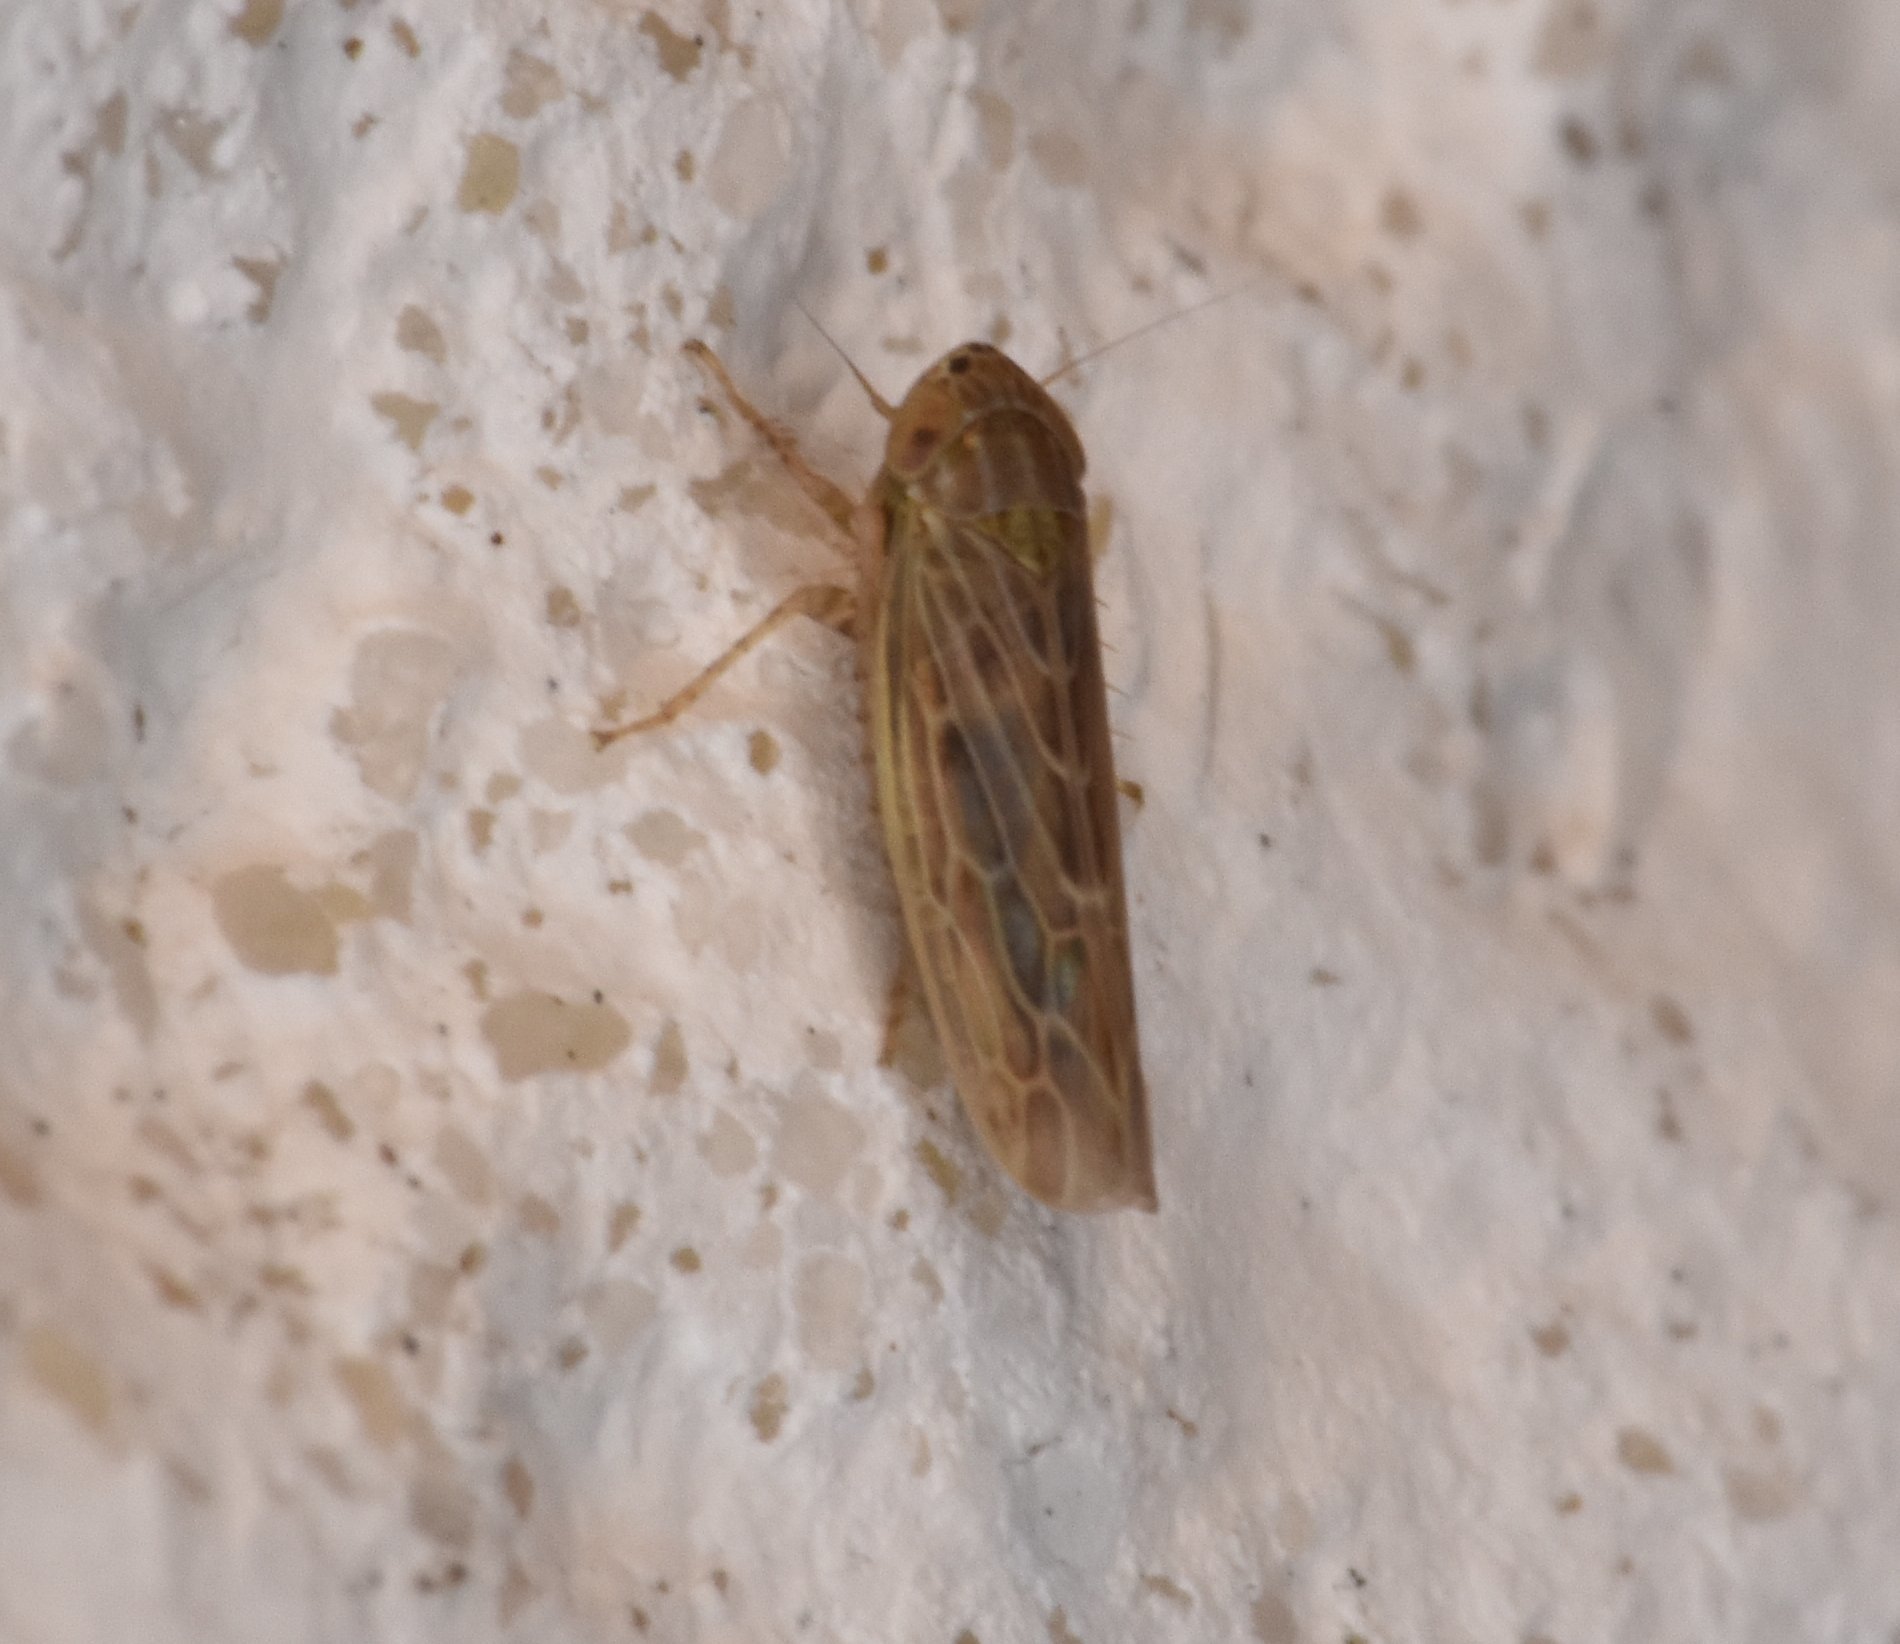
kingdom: Animalia
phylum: Arthropoda
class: Insecta
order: Hemiptera
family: Cicadellidae
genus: Graminella
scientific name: Graminella sonora
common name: Lesser lawn leafhopper
